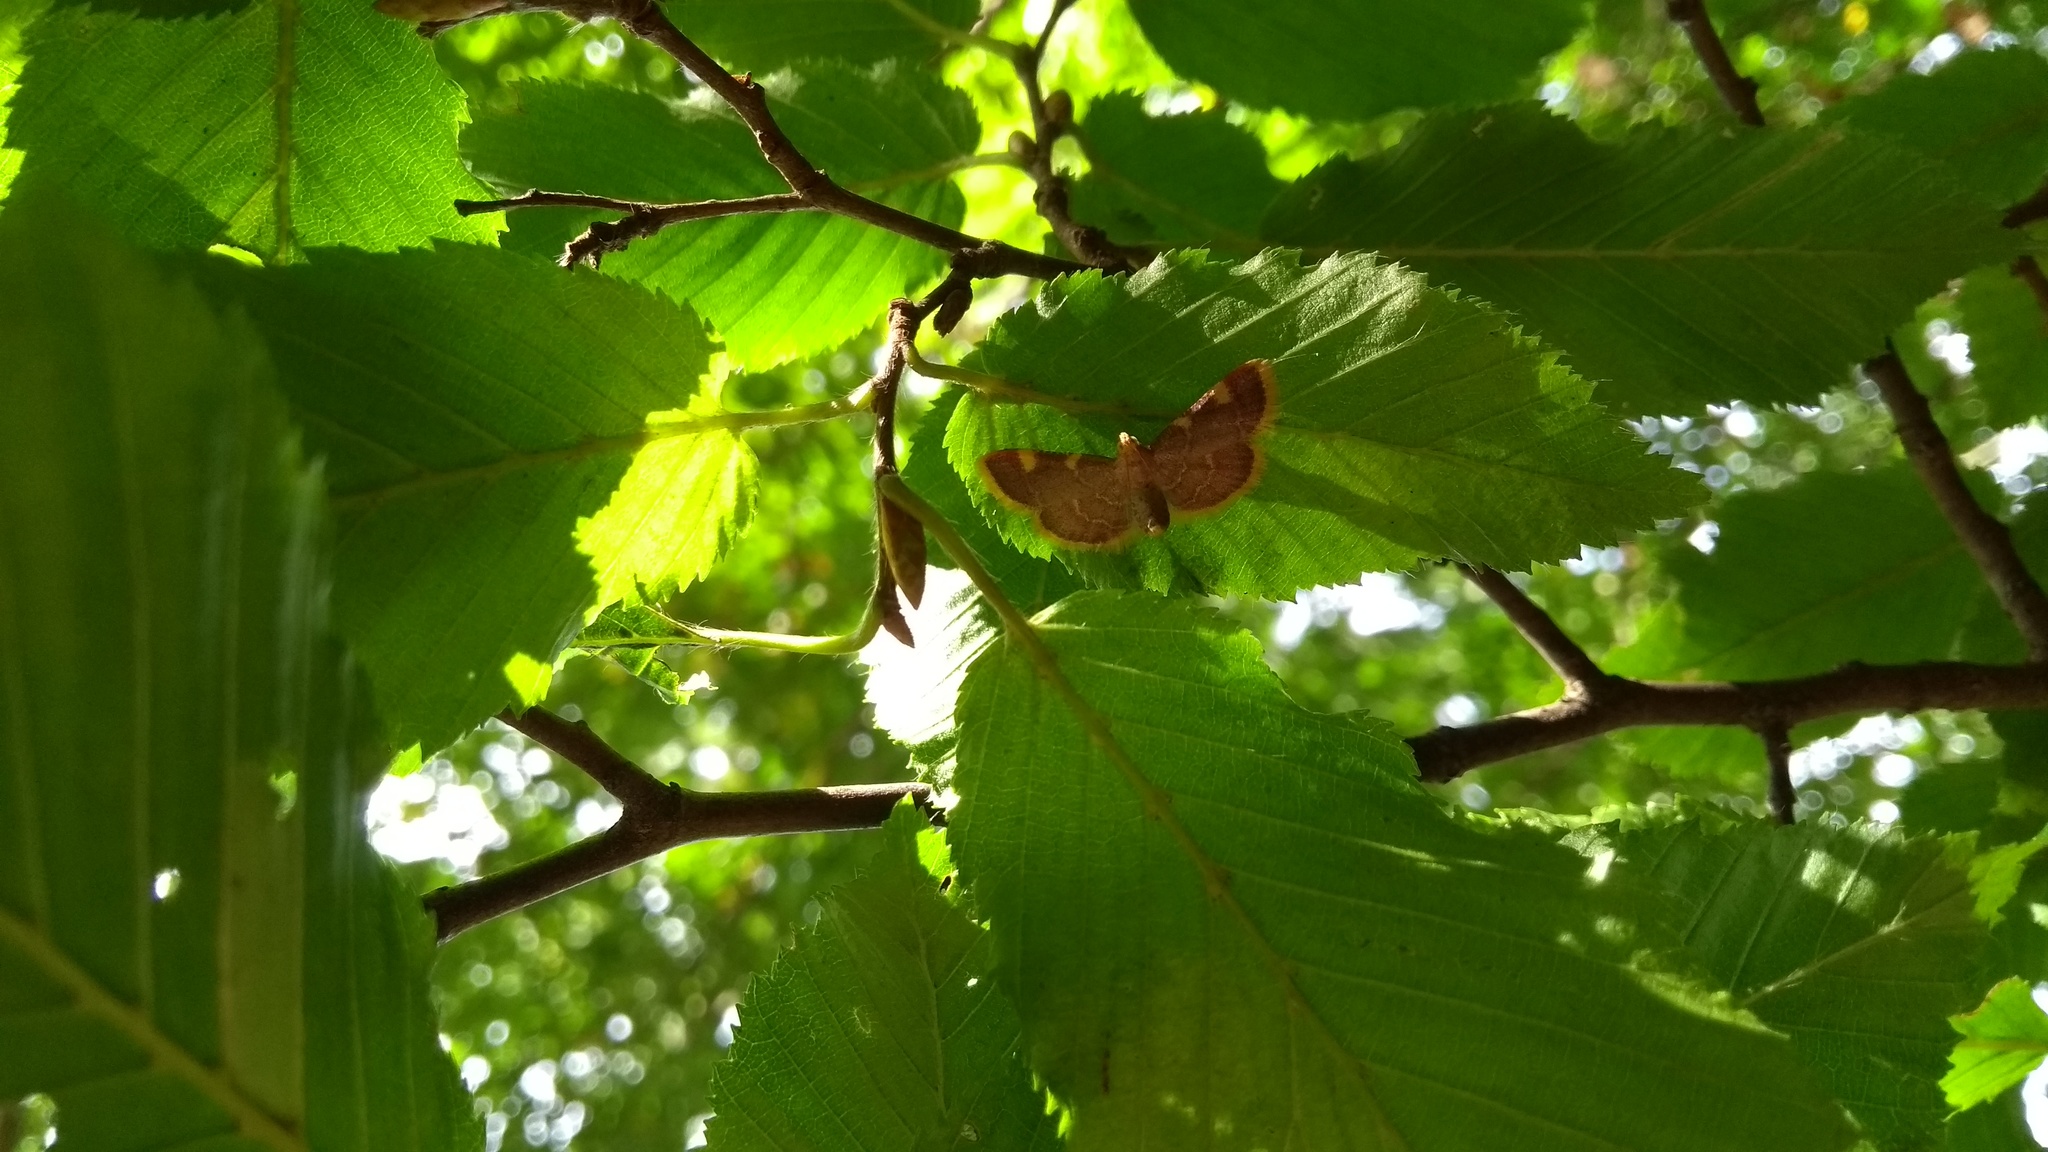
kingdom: Animalia
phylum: Arthropoda
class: Insecta
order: Lepidoptera
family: Pyralidae
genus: Hypsopygia
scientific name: Hypsopygia costalis
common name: Gold triangle
